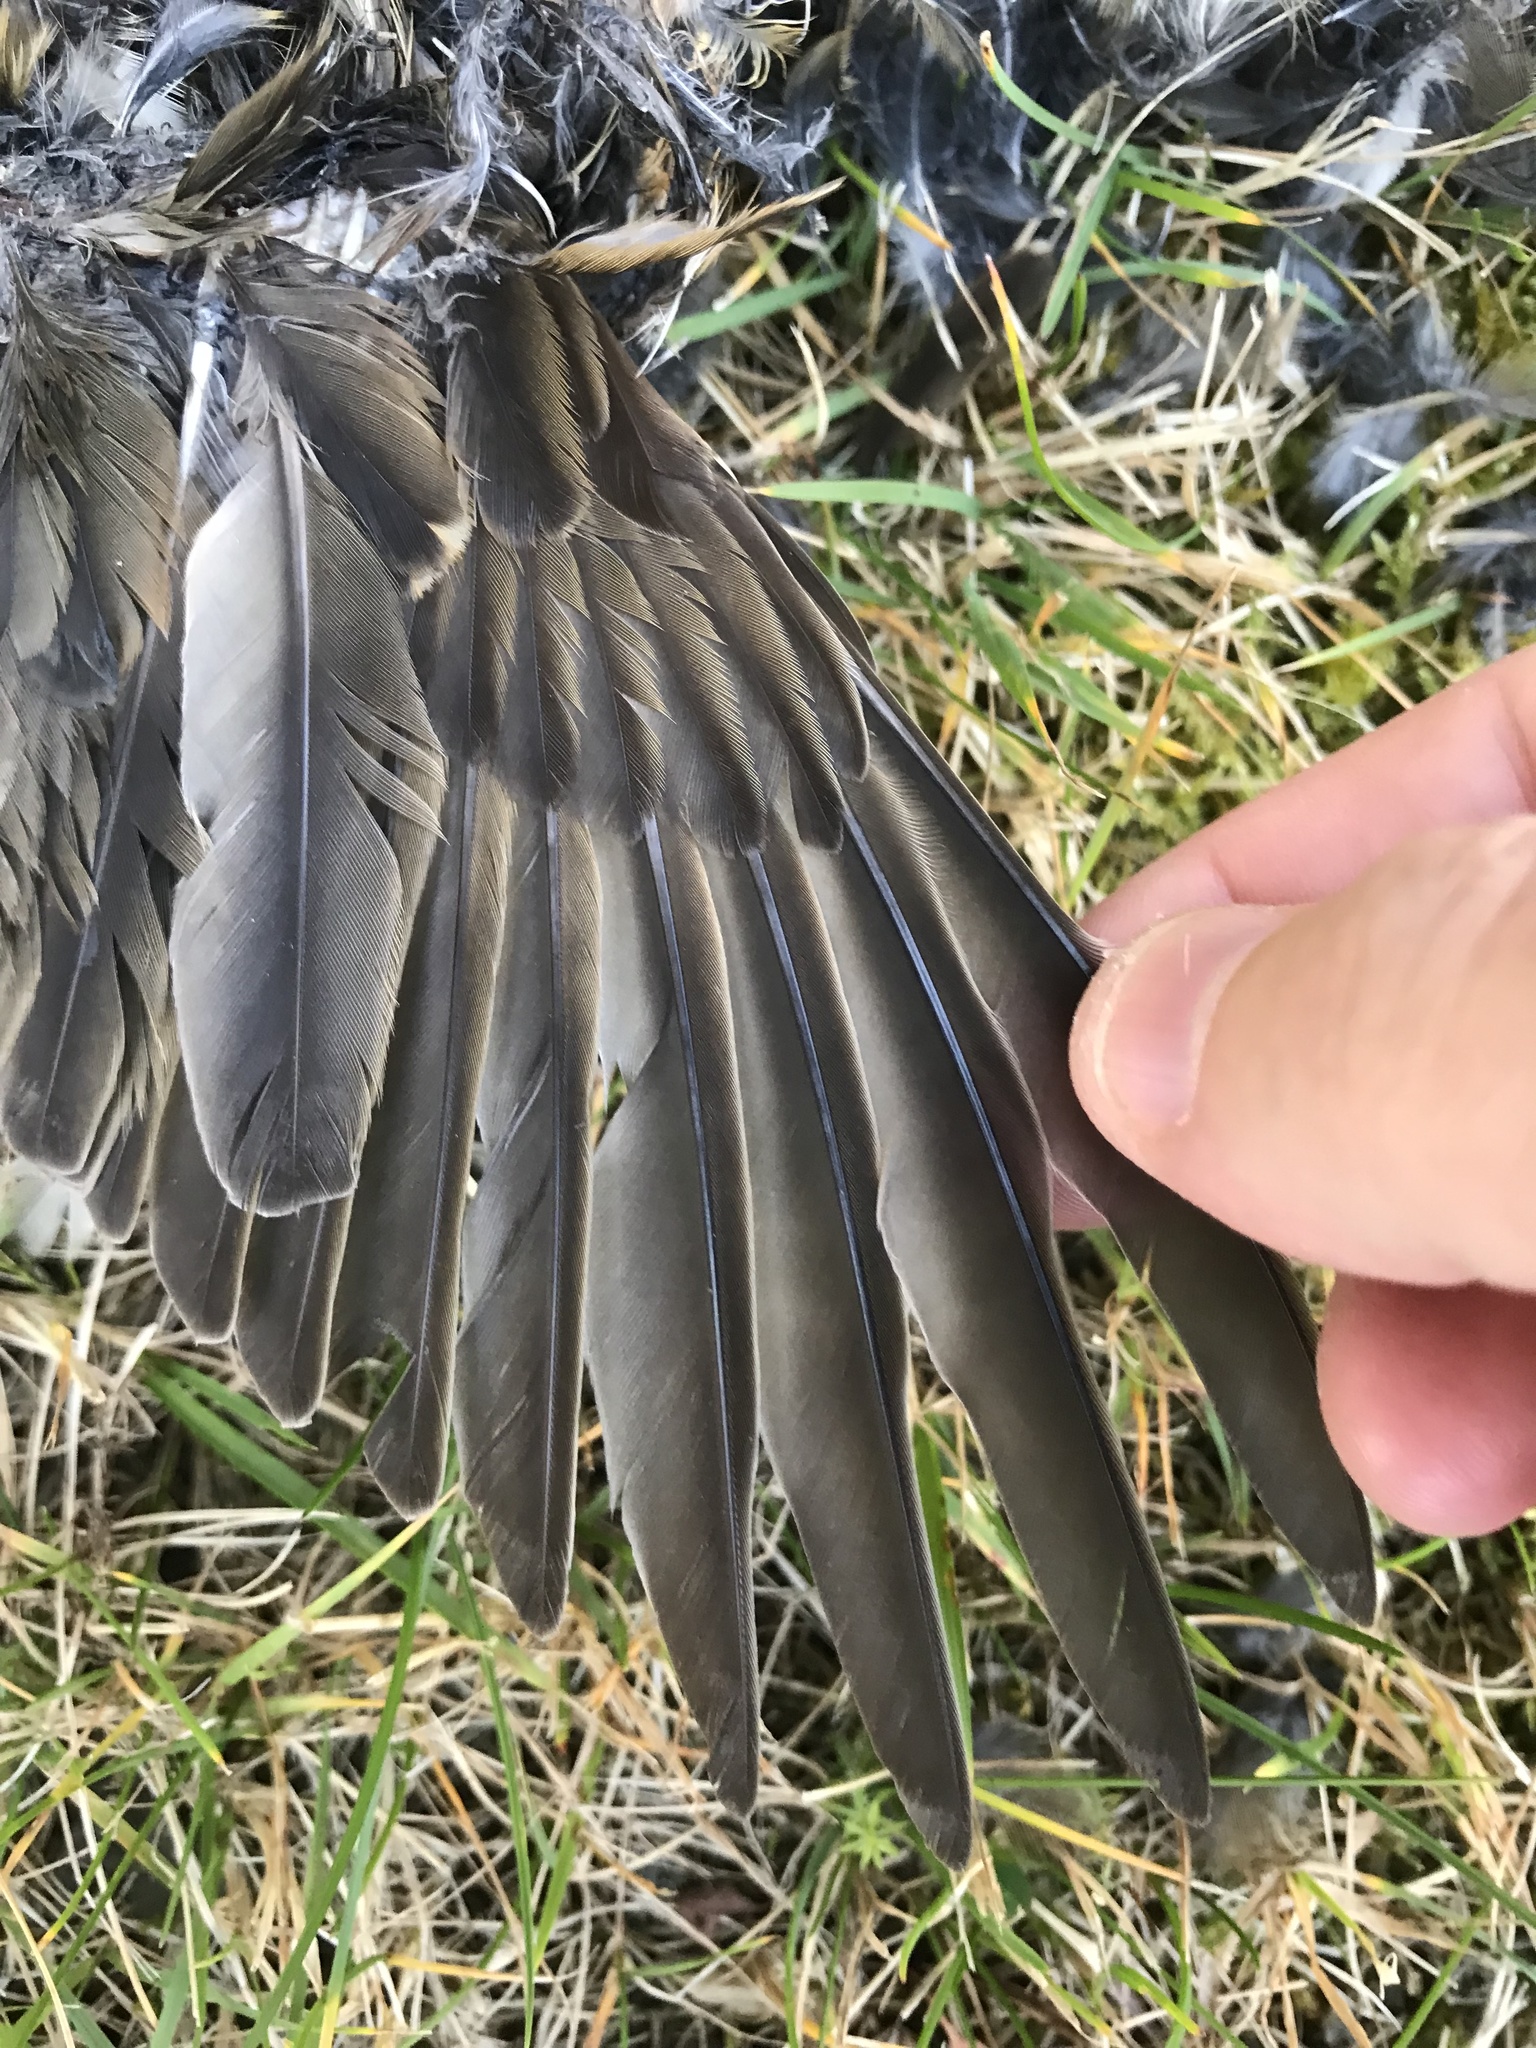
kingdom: Animalia
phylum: Chordata
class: Aves
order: Passeriformes
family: Turdidae
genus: Turdus
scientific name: Turdus iliacus
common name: Redwing
